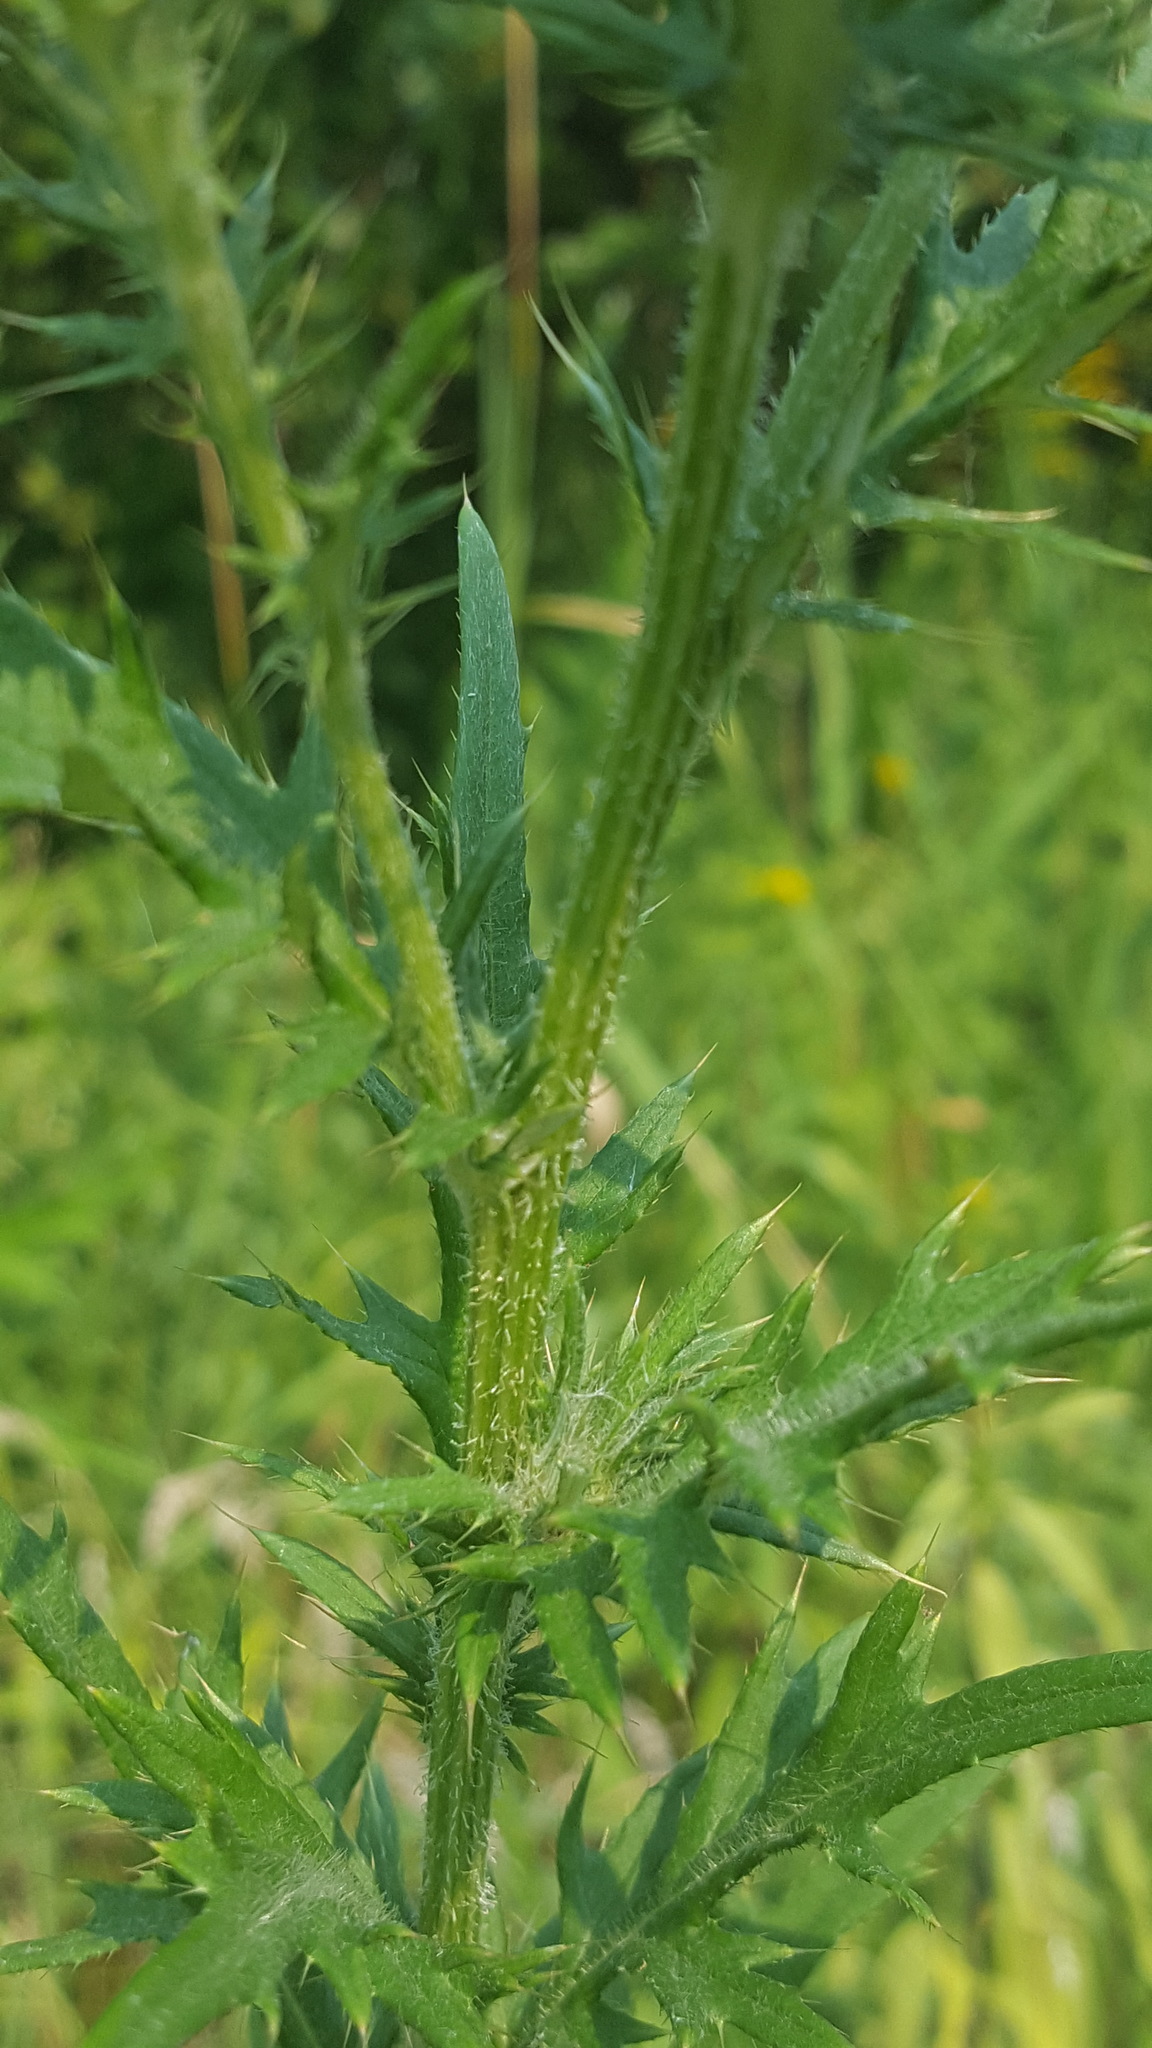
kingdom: Plantae
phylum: Tracheophyta
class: Magnoliopsida
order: Asterales
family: Asteraceae
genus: Cirsium
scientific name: Cirsium discolor
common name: Field thistle
